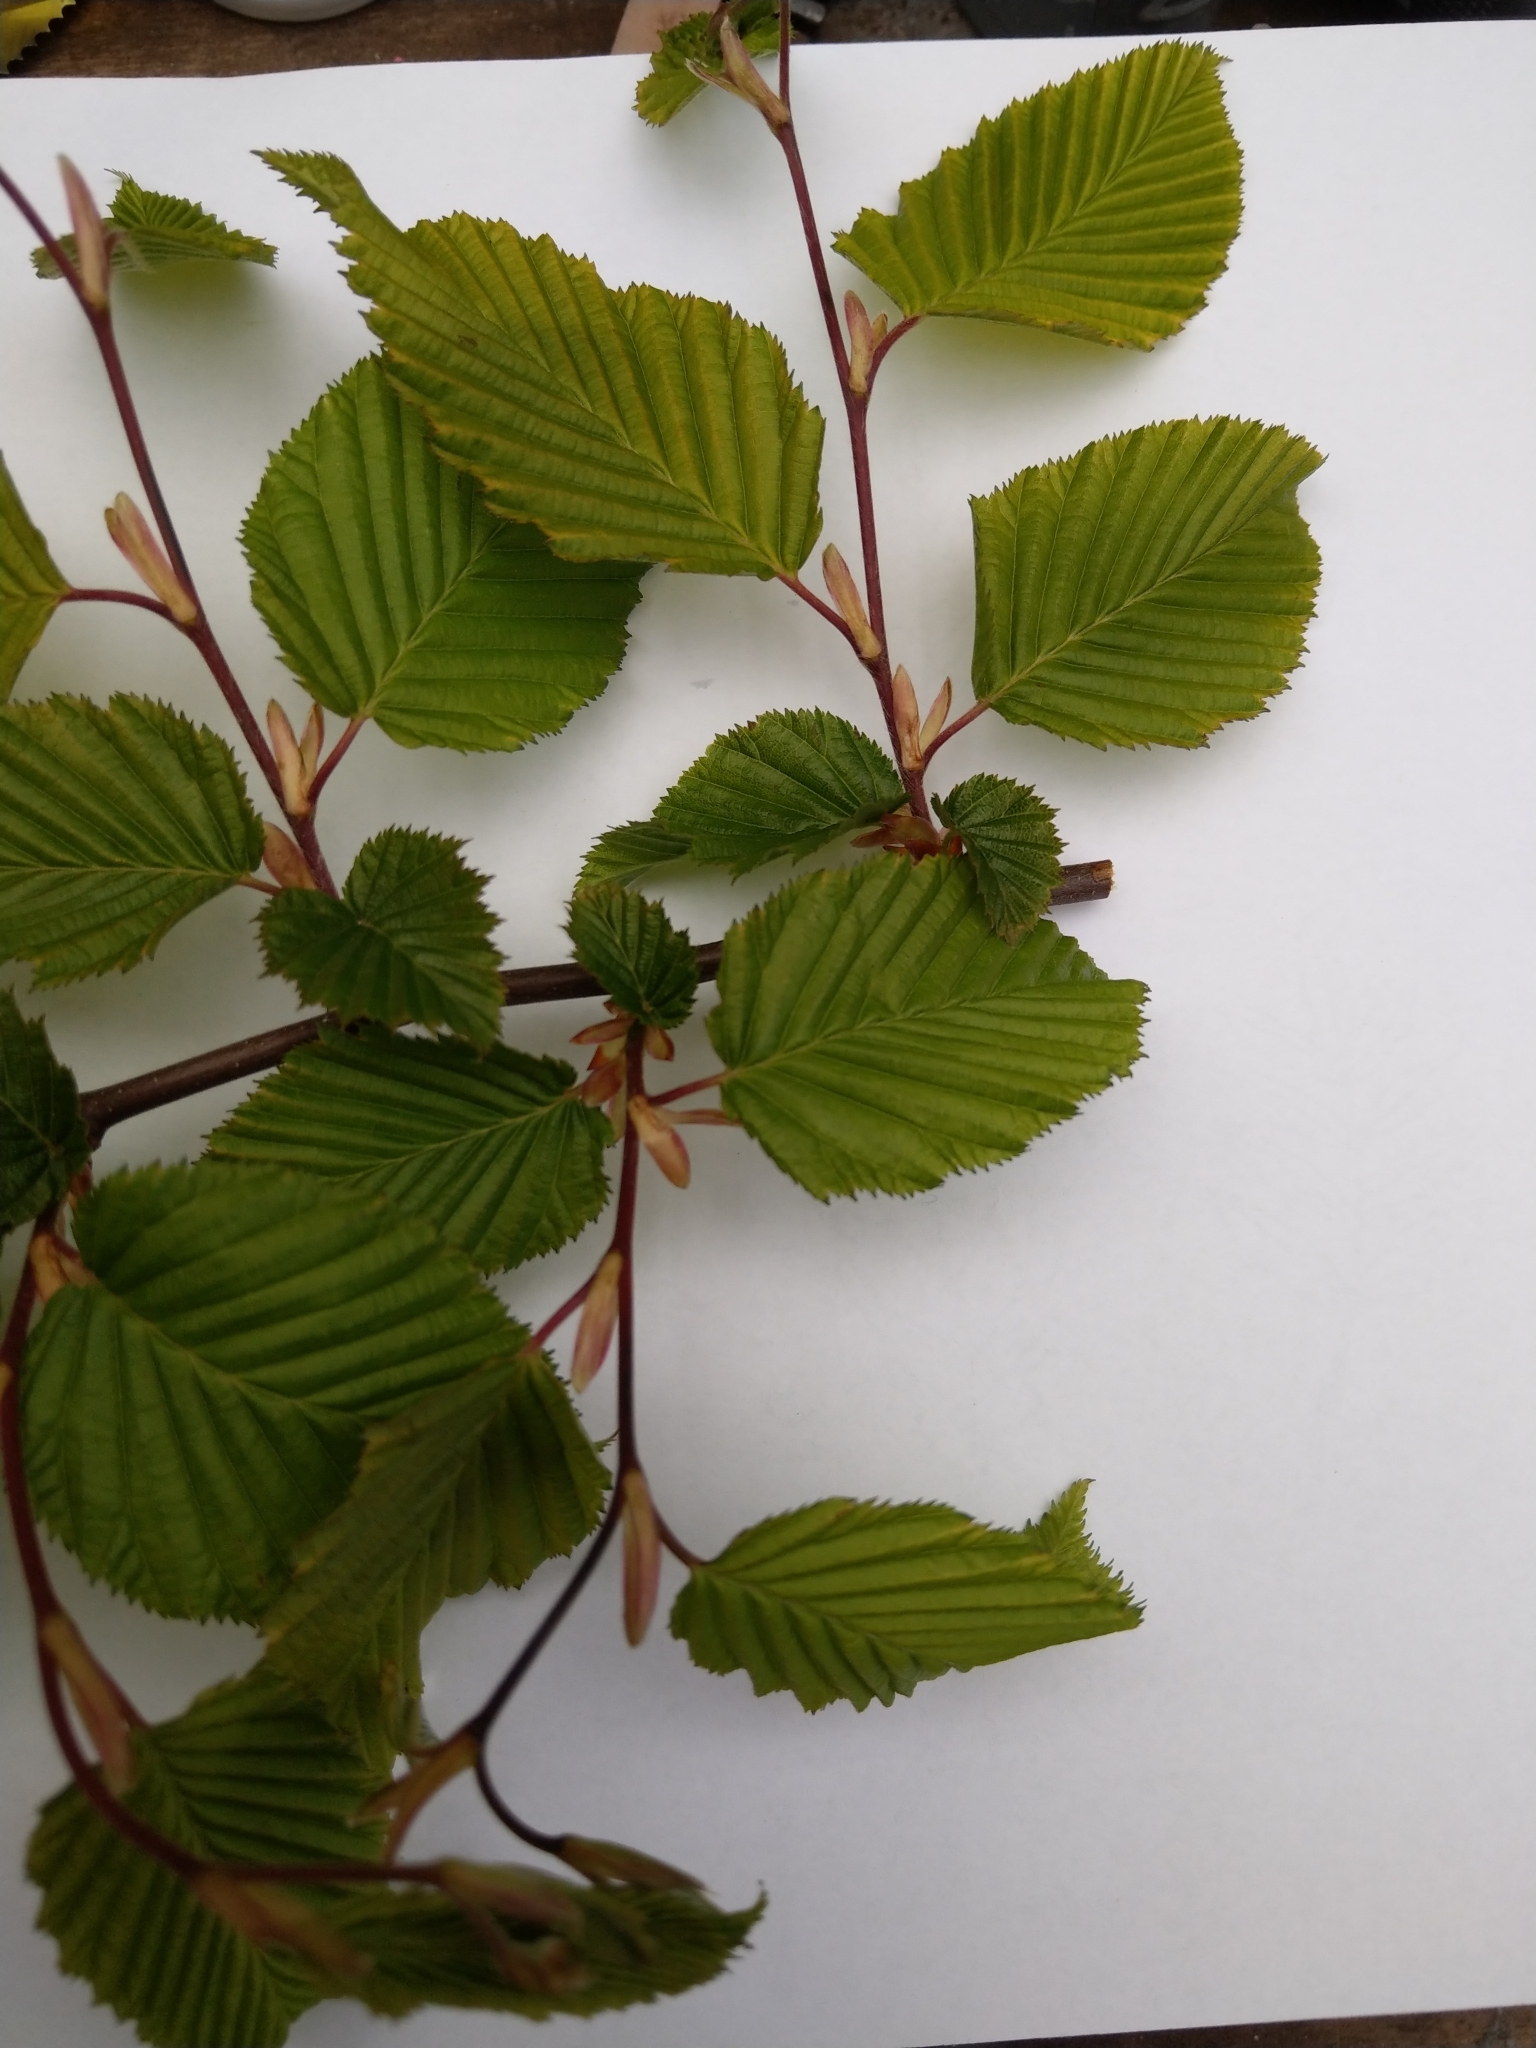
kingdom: Plantae
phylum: Tracheophyta
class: Magnoliopsida
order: Fagales
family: Betulaceae
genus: Carpinus
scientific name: Carpinus betulus
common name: Hornbeam
